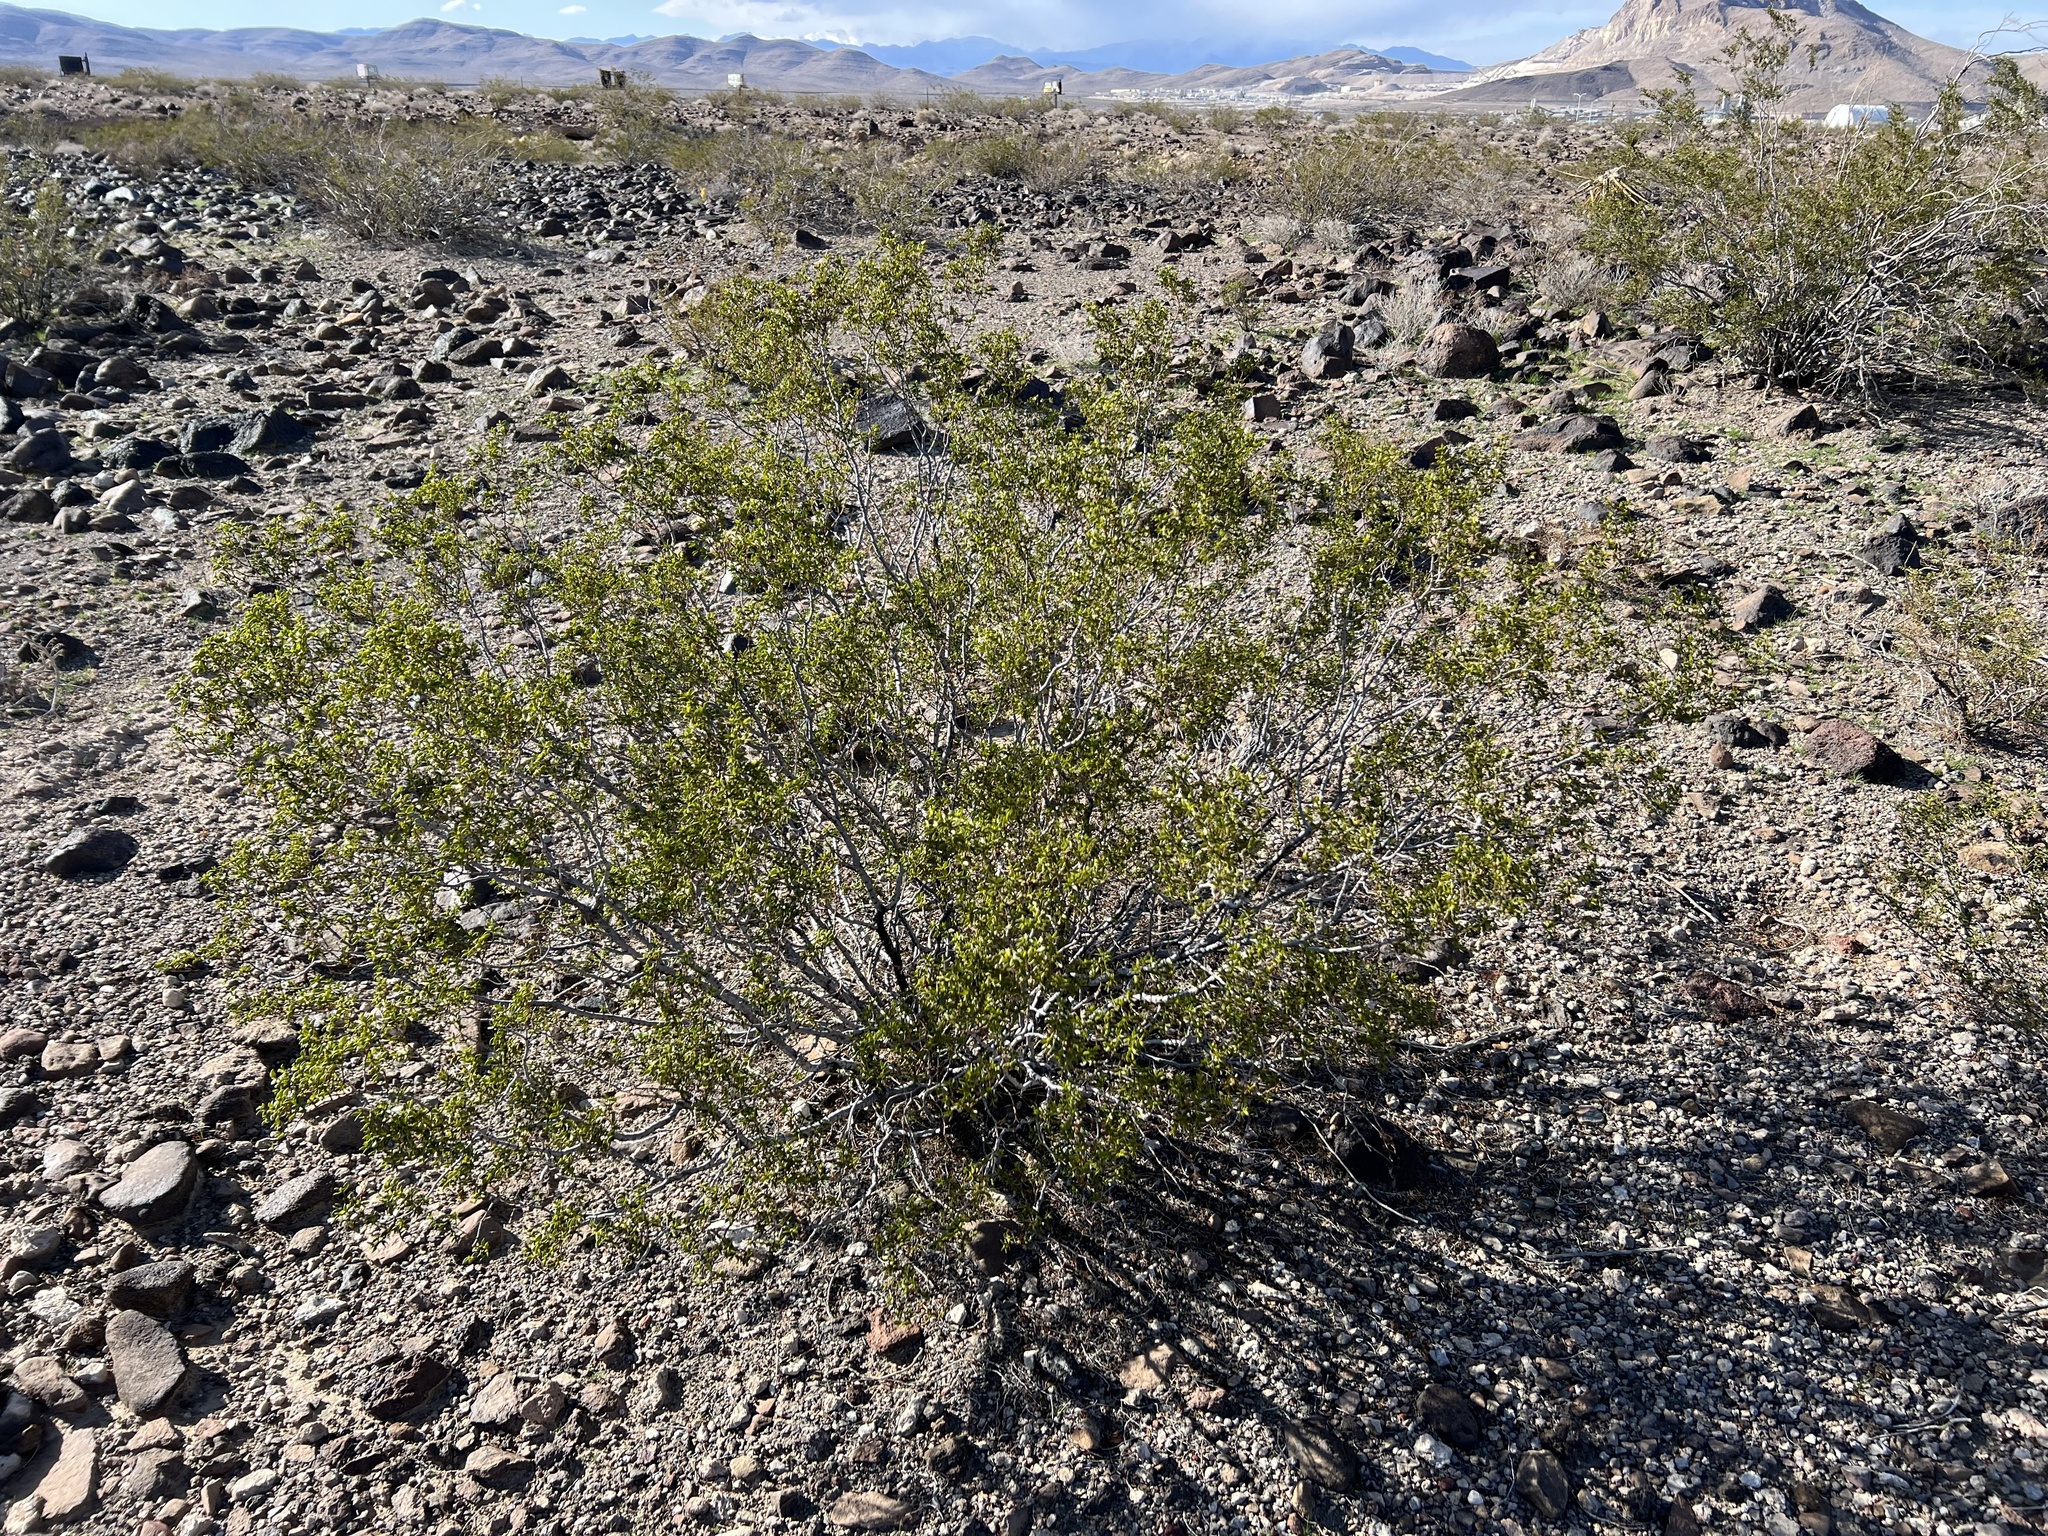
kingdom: Plantae
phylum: Tracheophyta
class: Magnoliopsida
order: Zygophyllales
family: Zygophyllaceae
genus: Larrea
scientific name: Larrea tridentata
